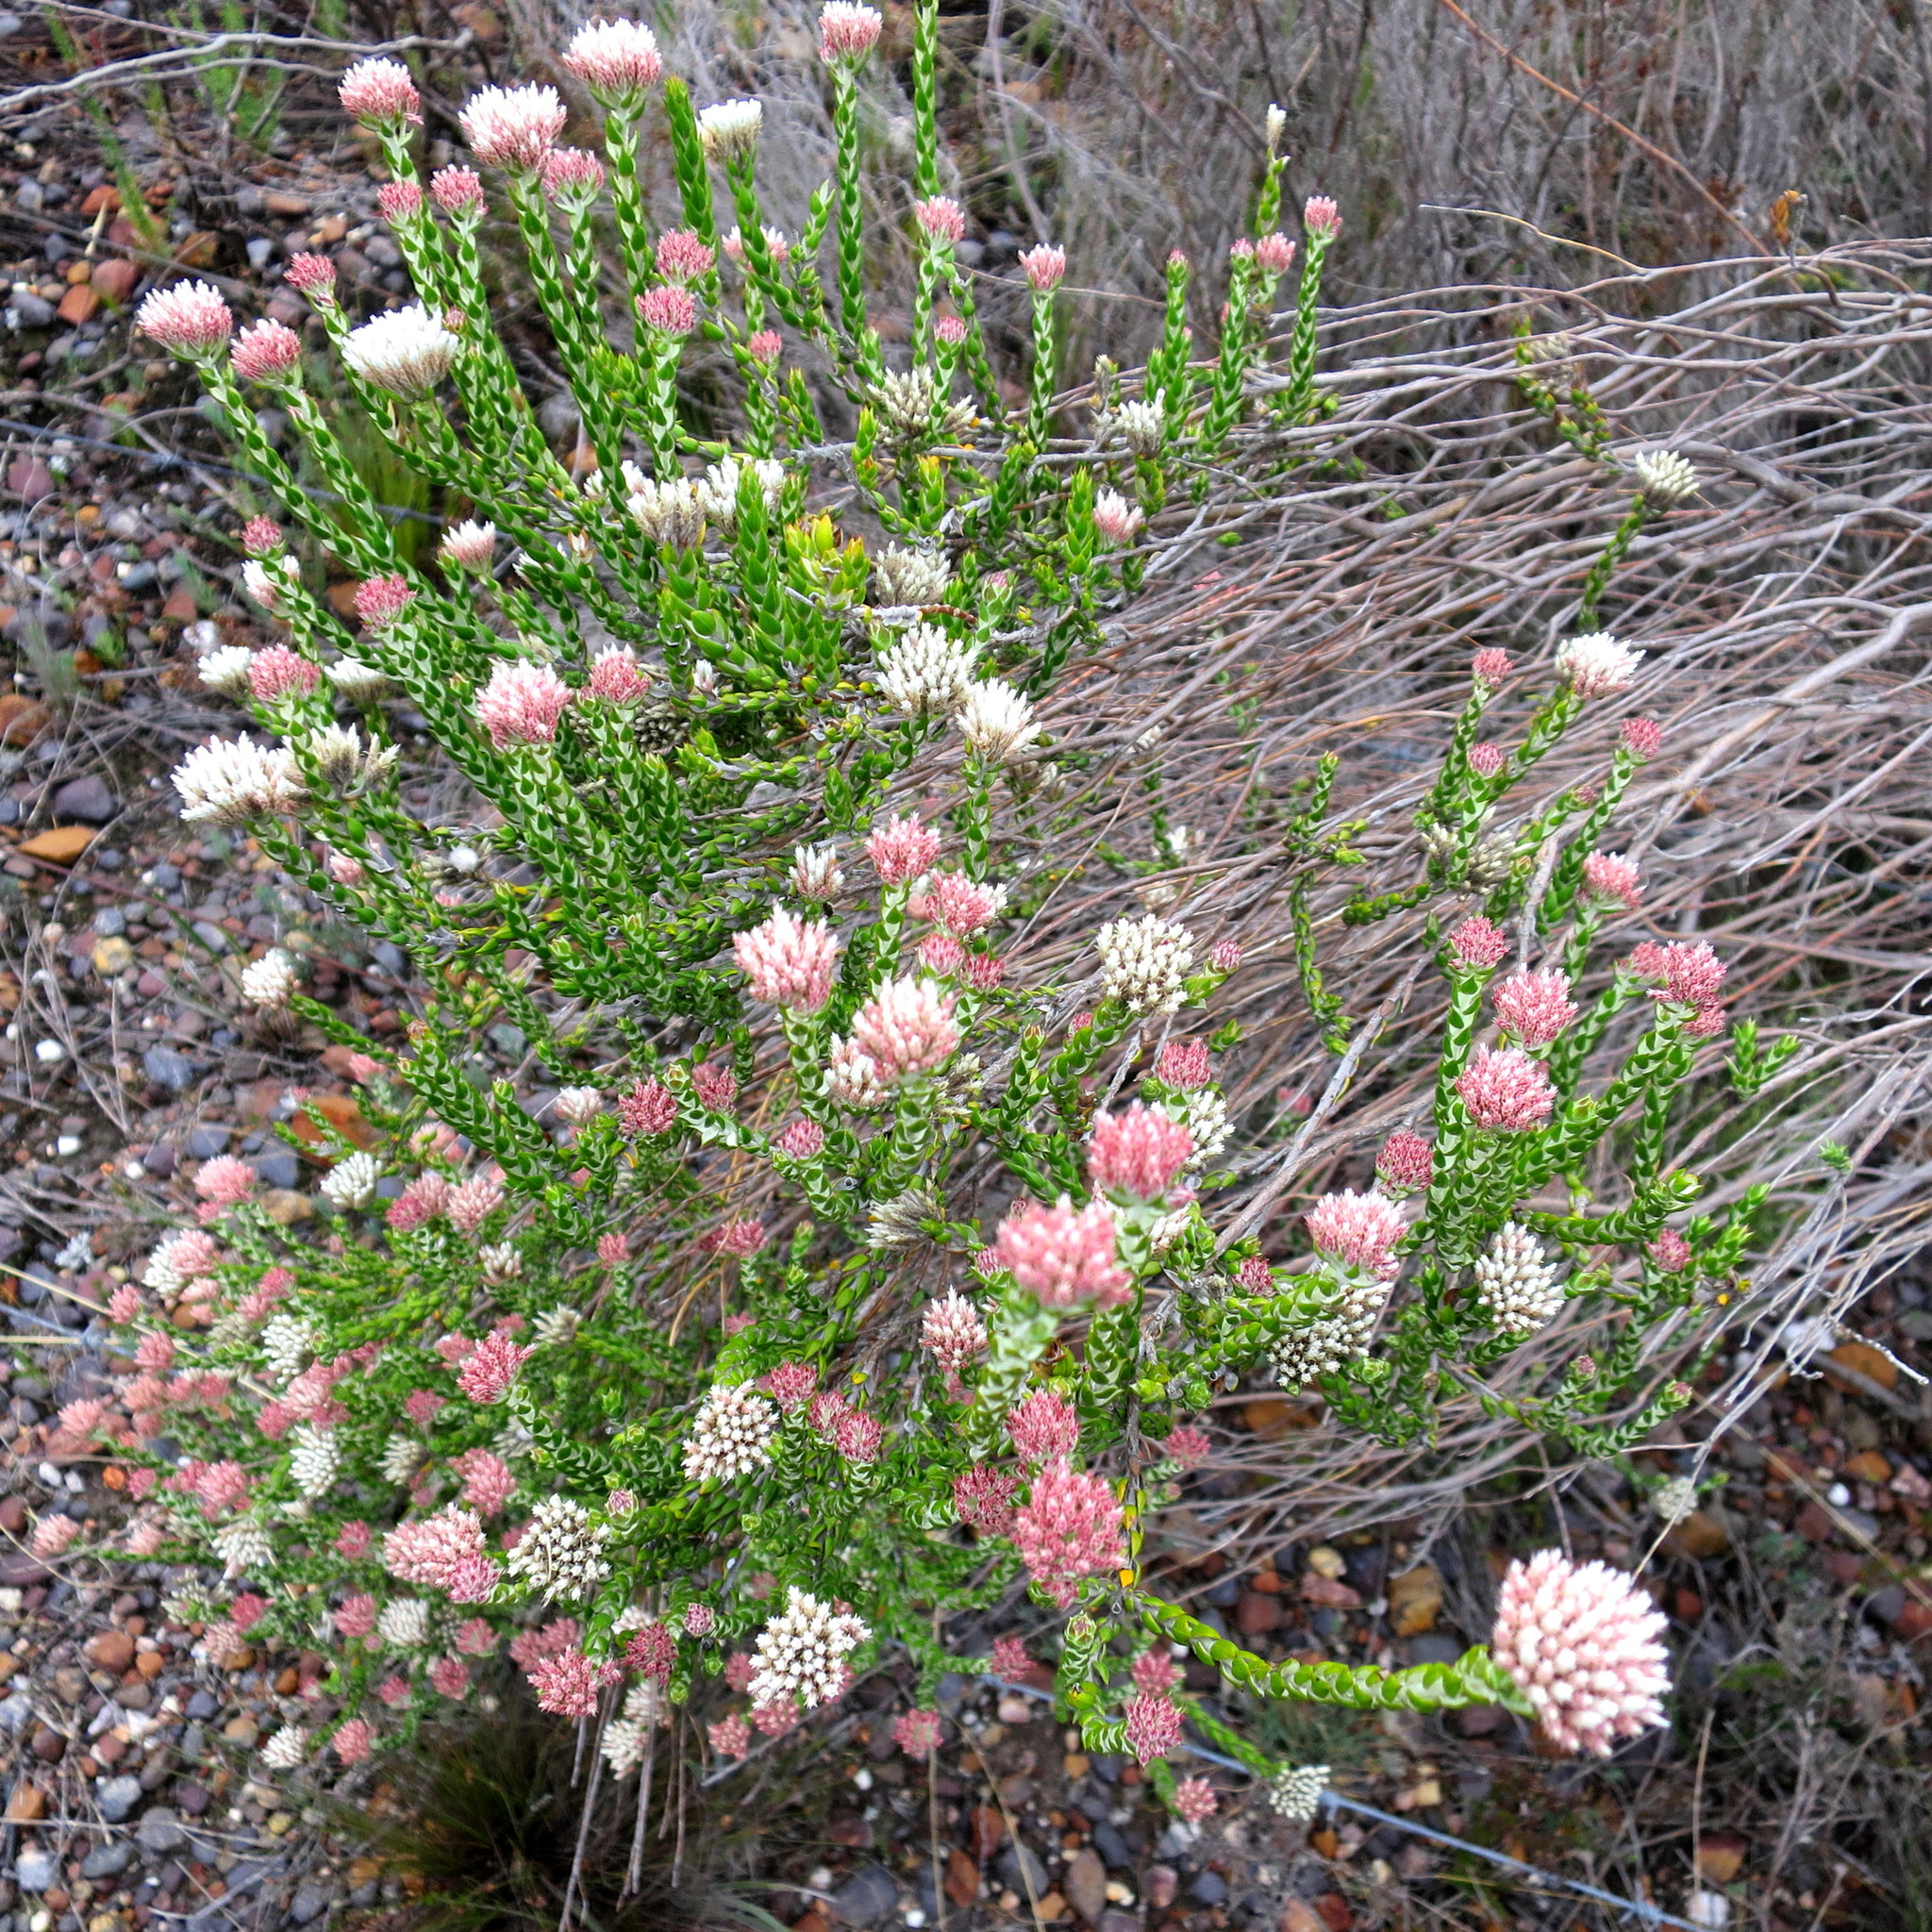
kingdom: Plantae
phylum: Tracheophyta
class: Magnoliopsida
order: Asterales
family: Asteraceae
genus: Metalasia
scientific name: Metalasia pulcherrima
